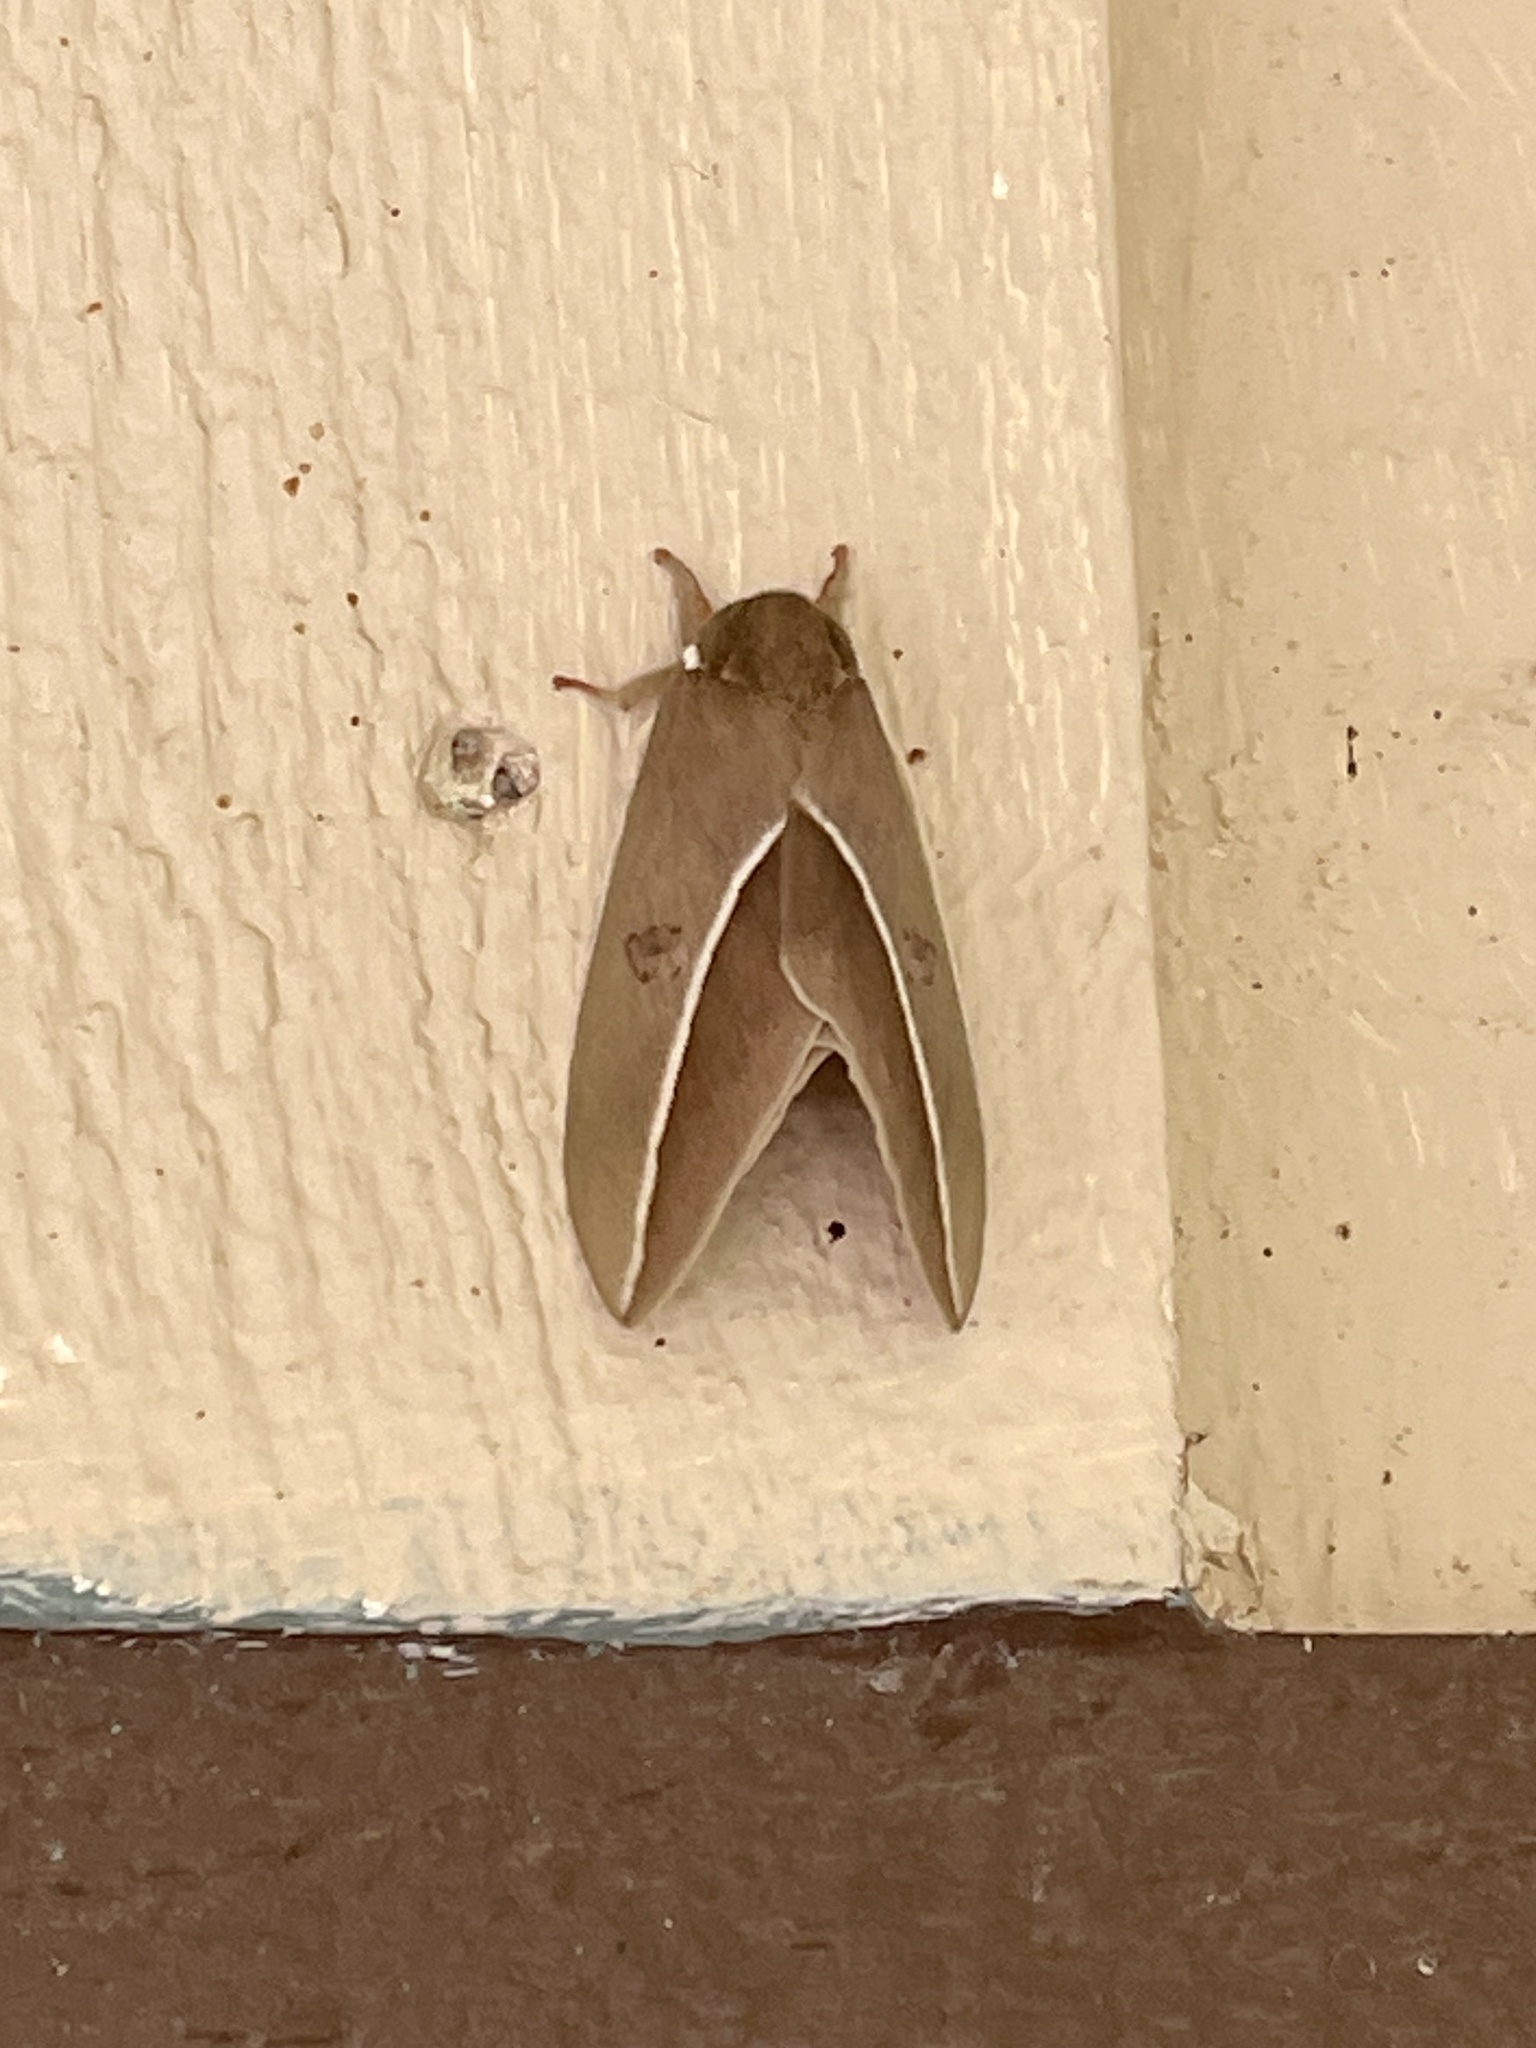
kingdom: Animalia
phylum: Arthropoda
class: Insecta
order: Lepidoptera
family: Saturniidae
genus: Automeris
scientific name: Automeris zephyria
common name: Zephyr eyed silkmoth
